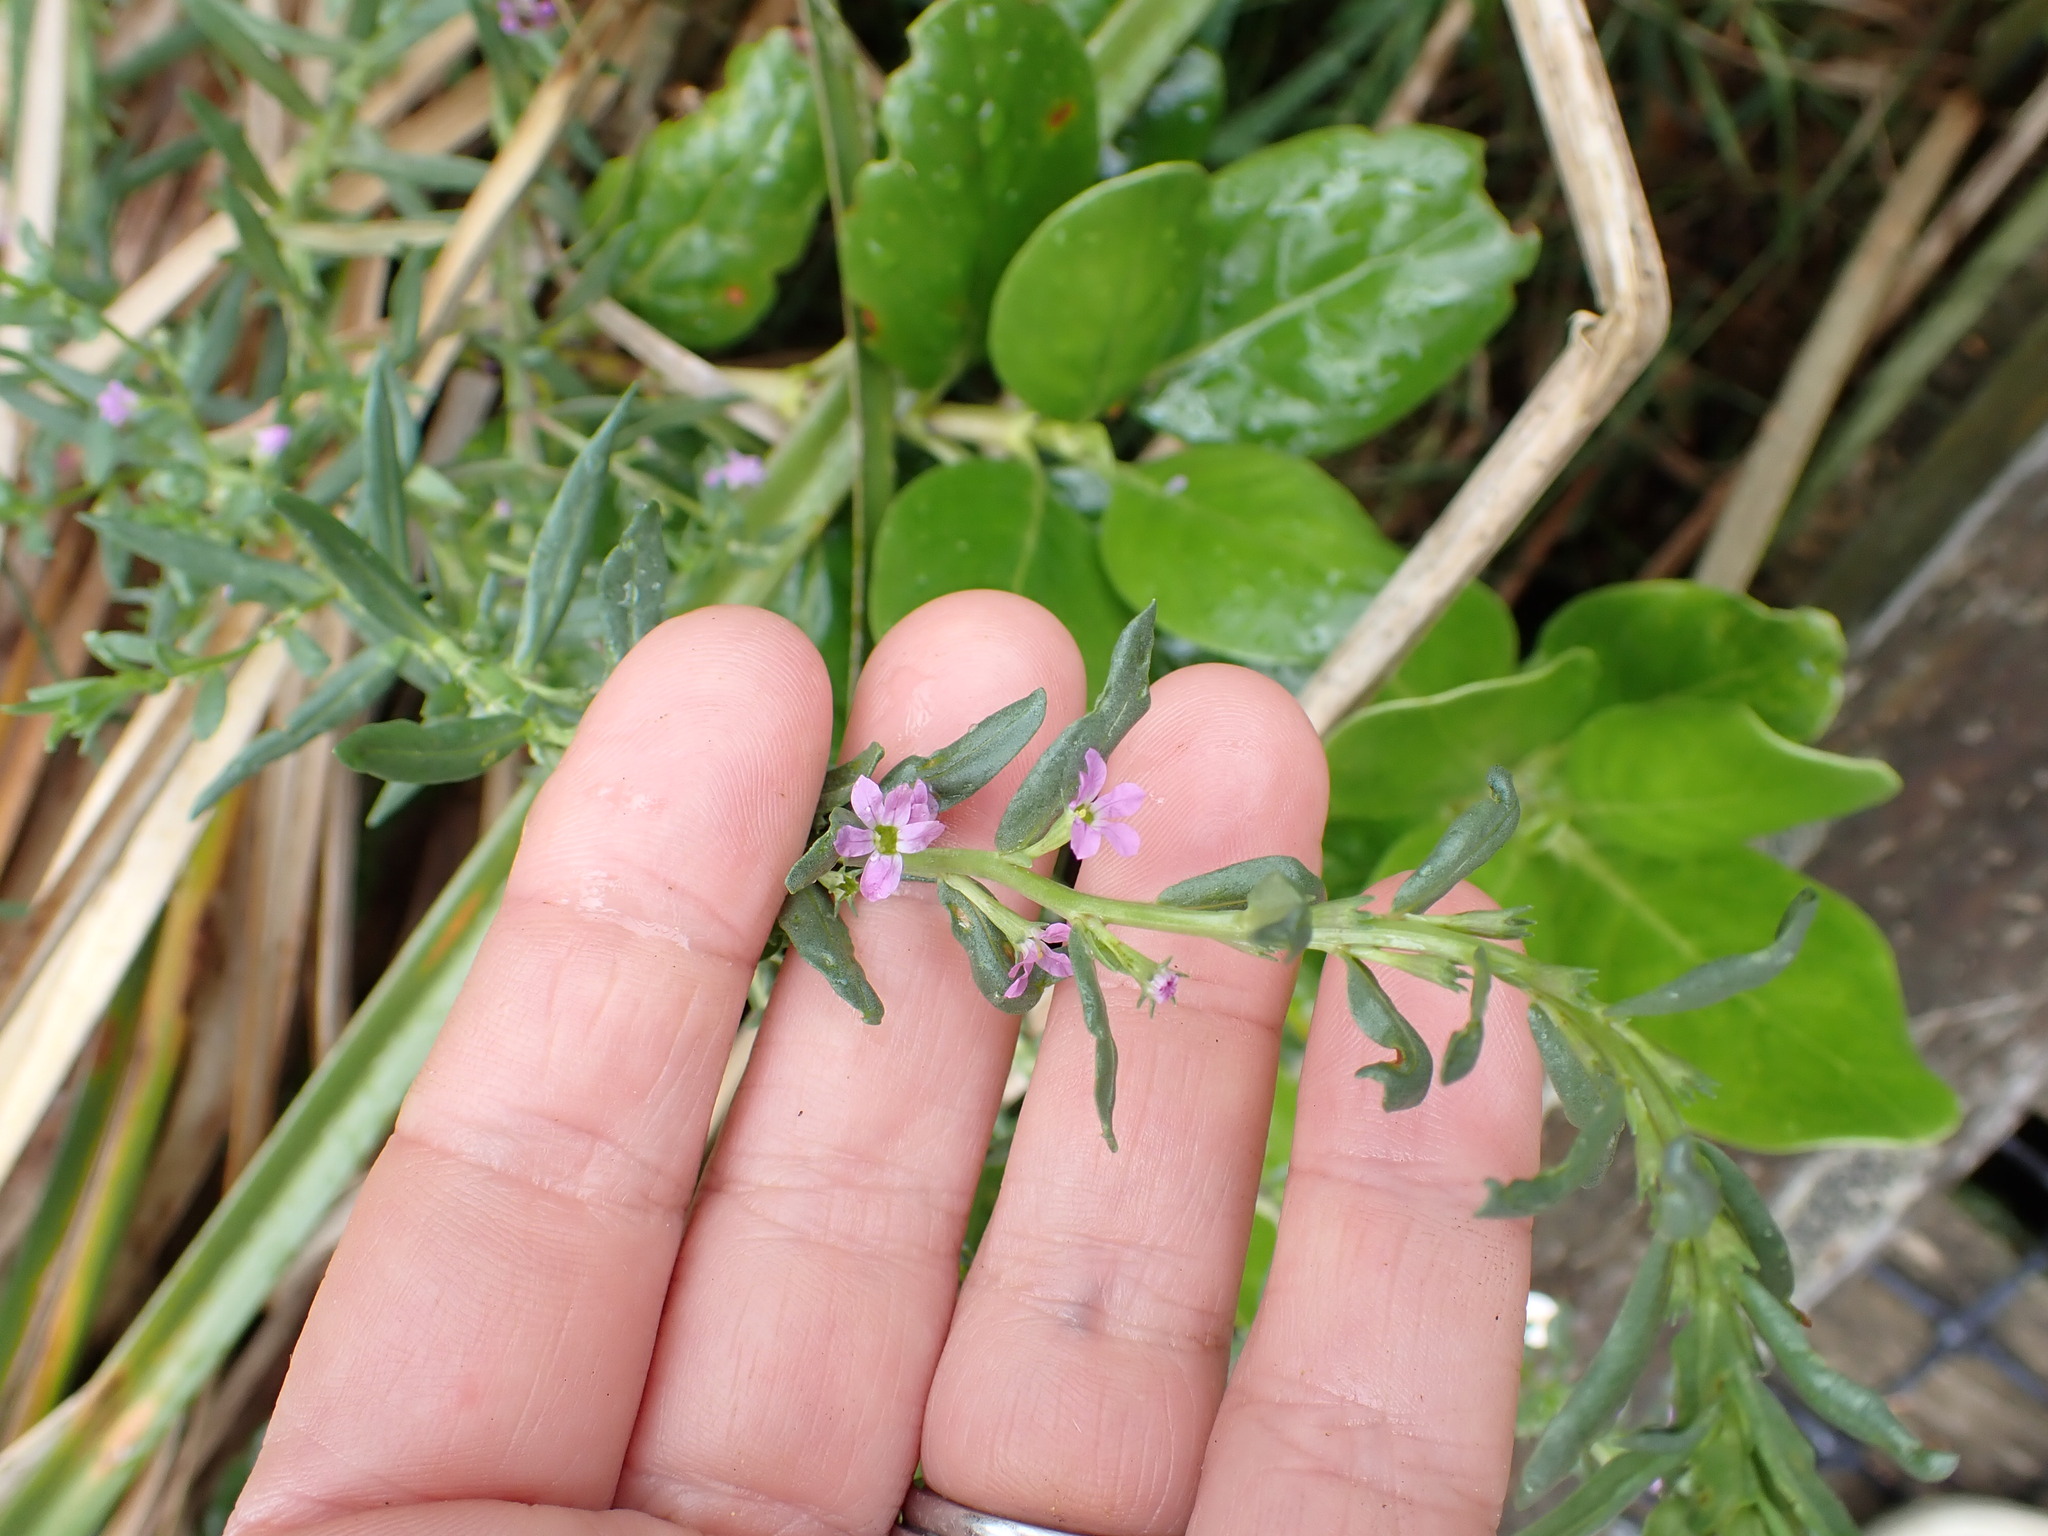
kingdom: Plantae
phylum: Tracheophyta
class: Magnoliopsida
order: Myrtales
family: Lythraceae
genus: Lythrum
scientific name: Lythrum hyssopifolia
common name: Grass-poly
